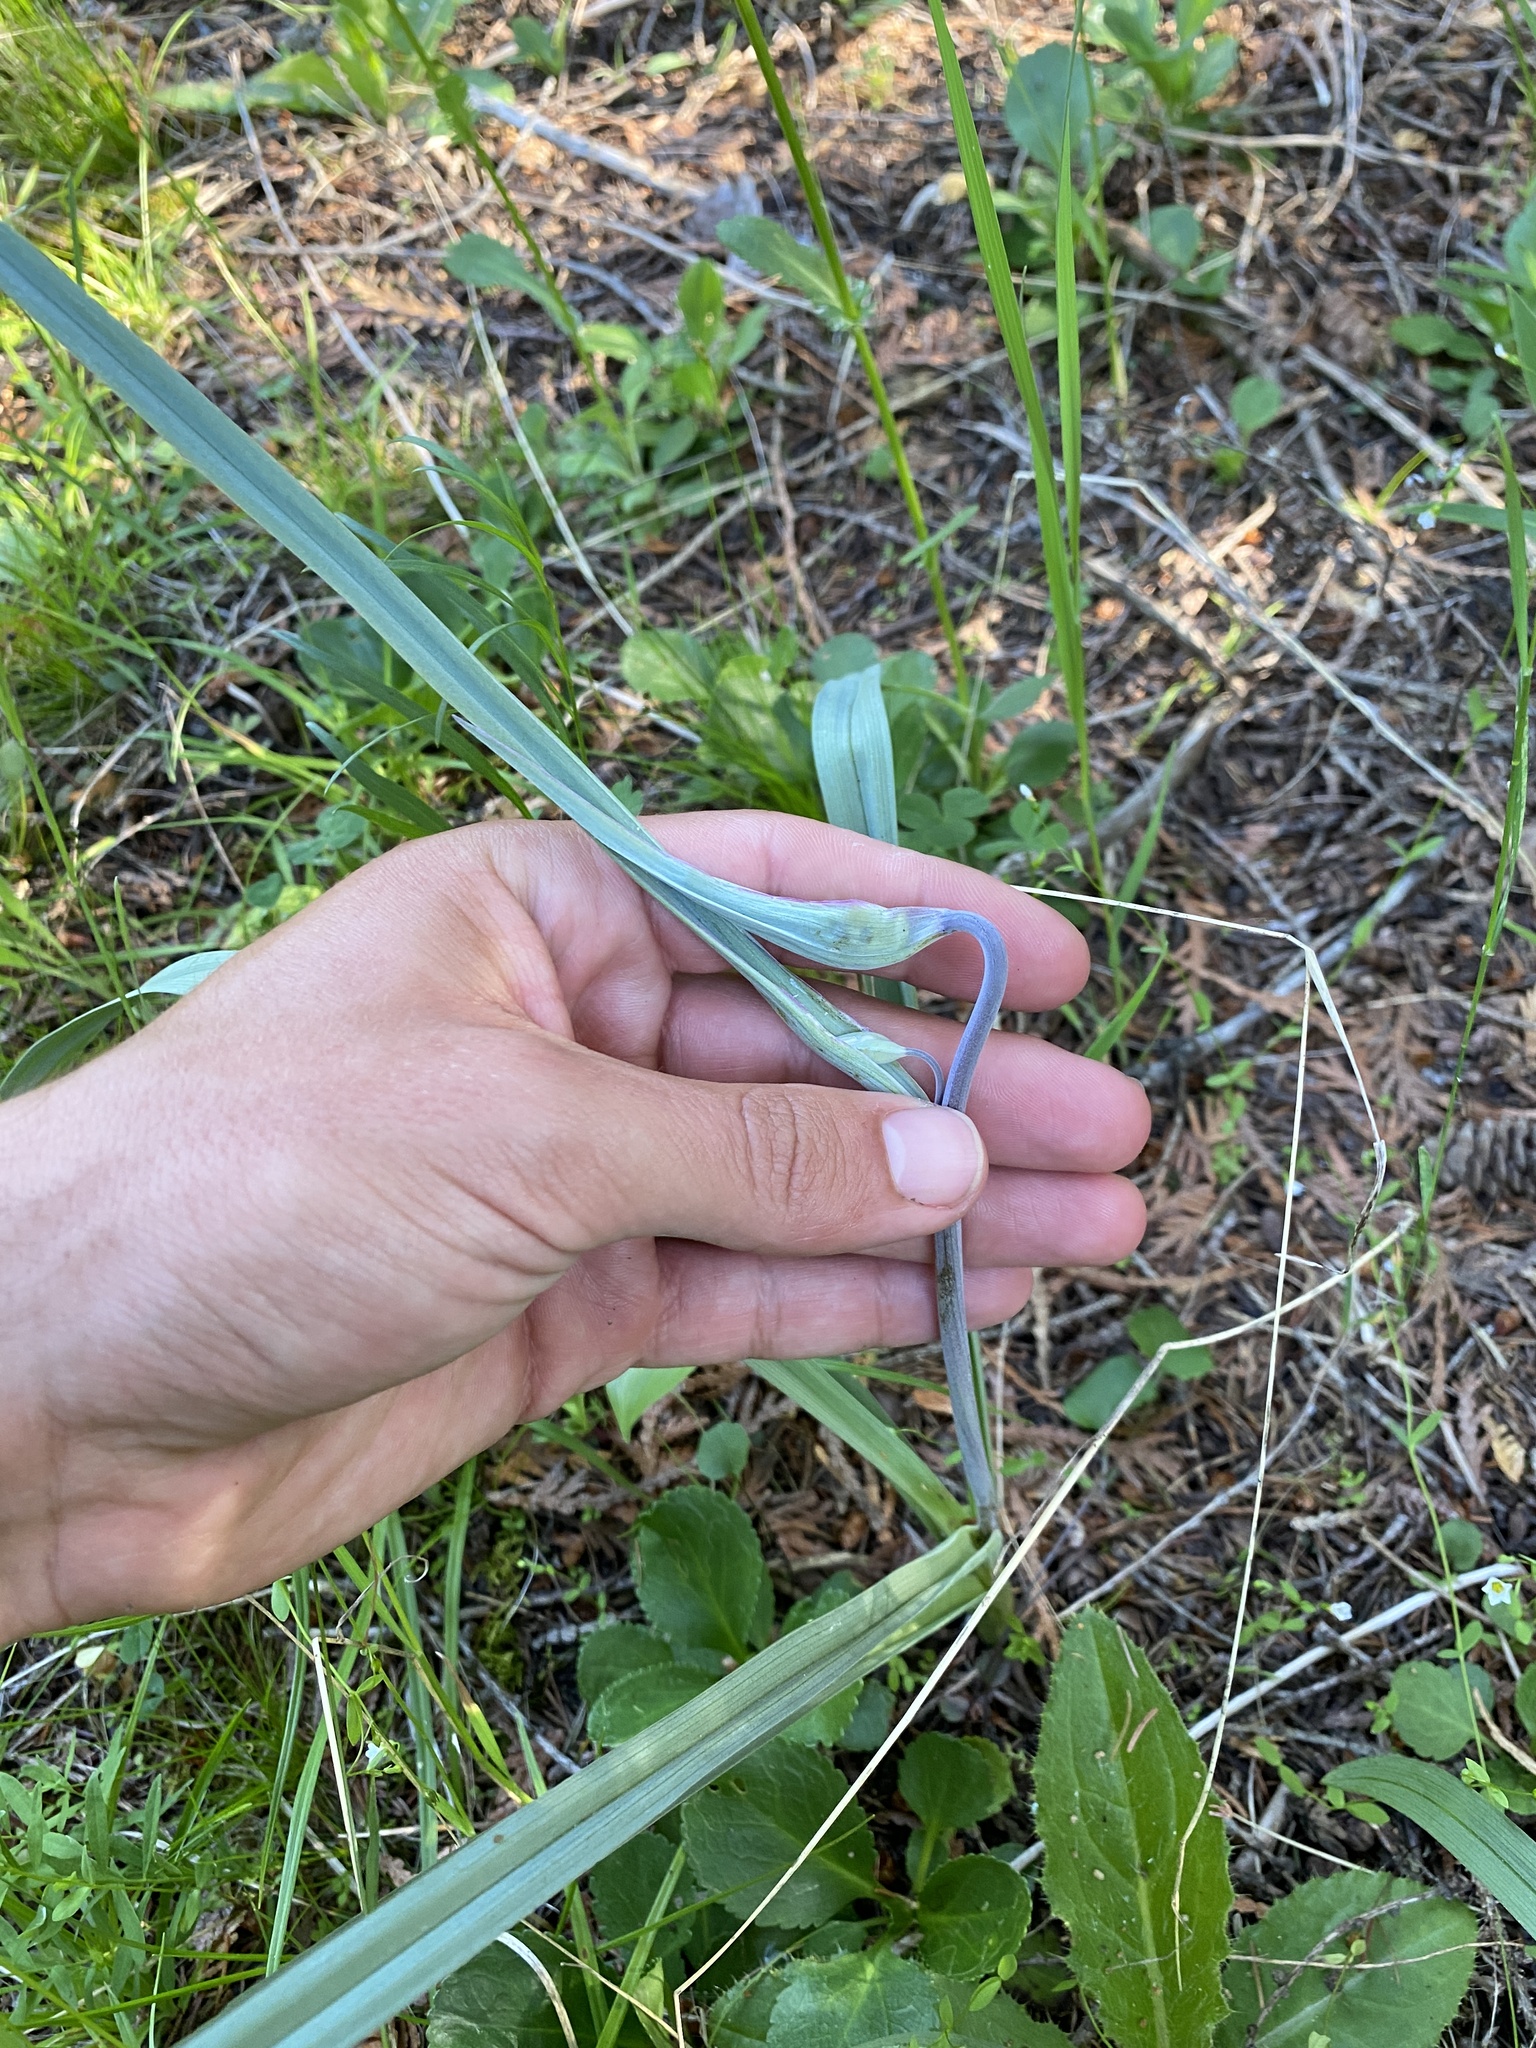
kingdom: Plantae
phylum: Tracheophyta
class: Liliopsida
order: Liliales
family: Melanthiaceae
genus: Anticlea
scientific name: Anticlea elegans
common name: Mountain death camas
